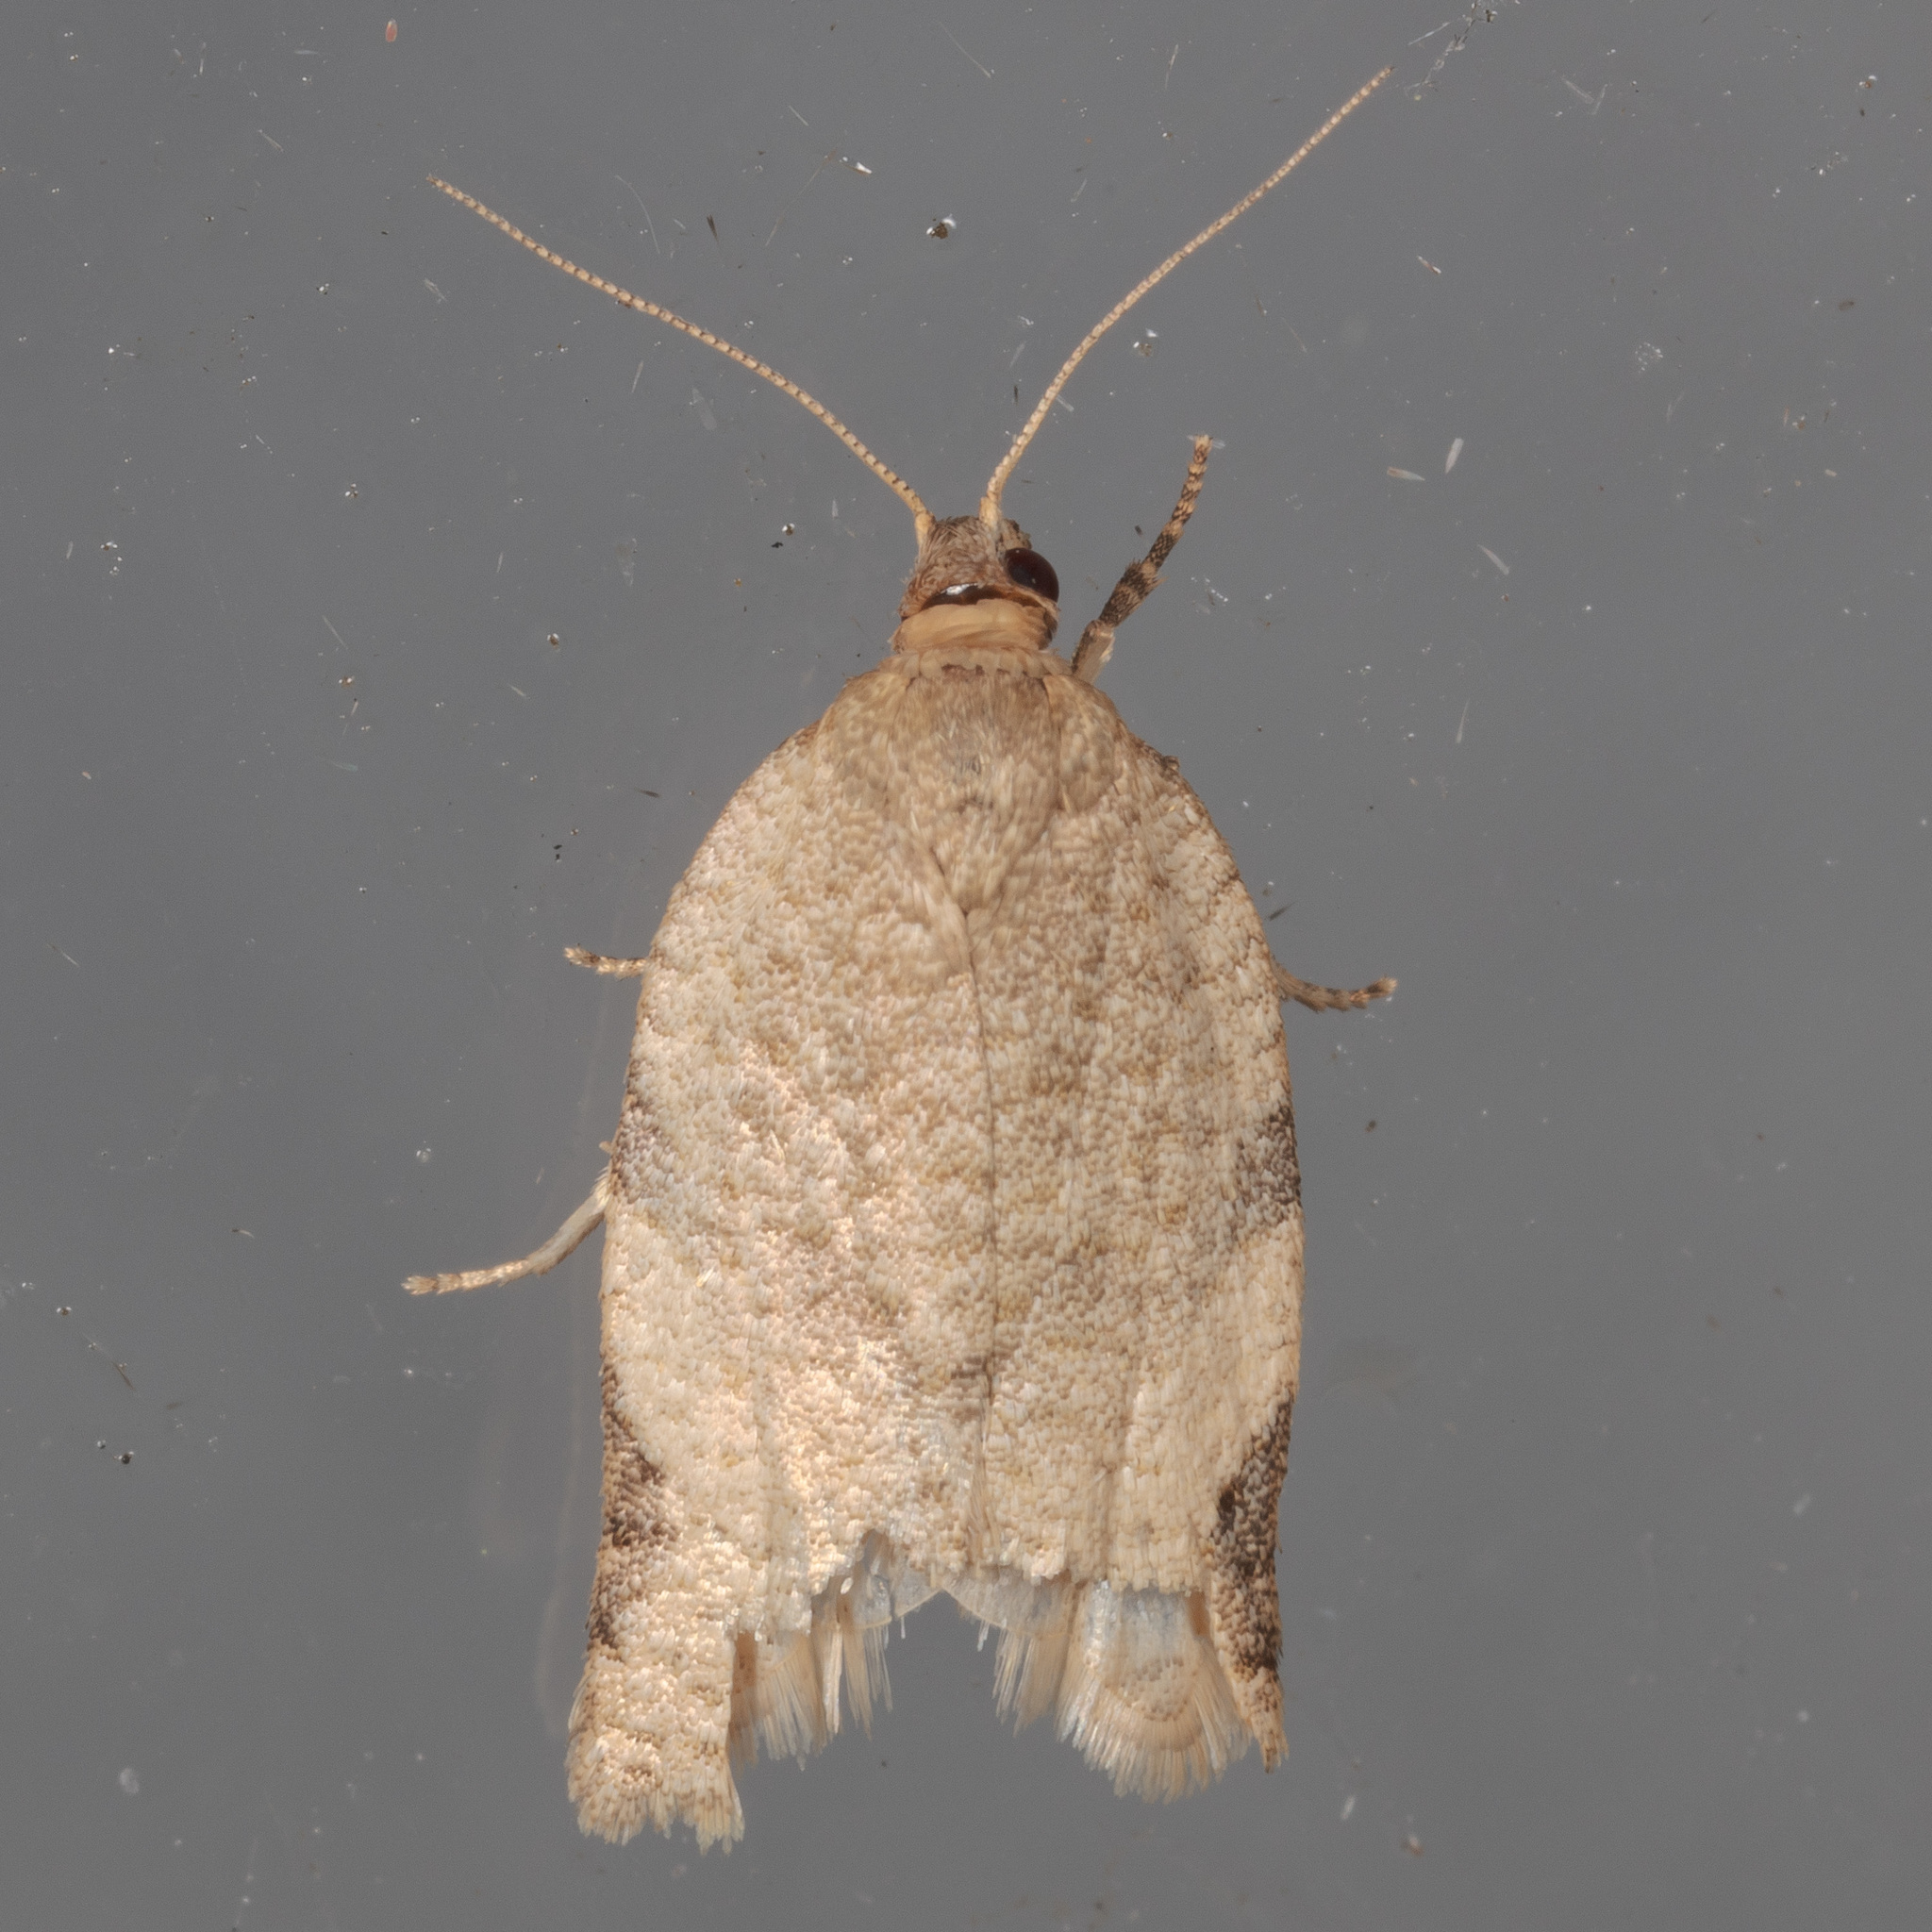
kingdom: Animalia
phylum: Arthropoda
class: Insecta
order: Lepidoptera
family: Tortricidae
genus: Clepsis
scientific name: Clepsis virescana
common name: Greenish apple moth
